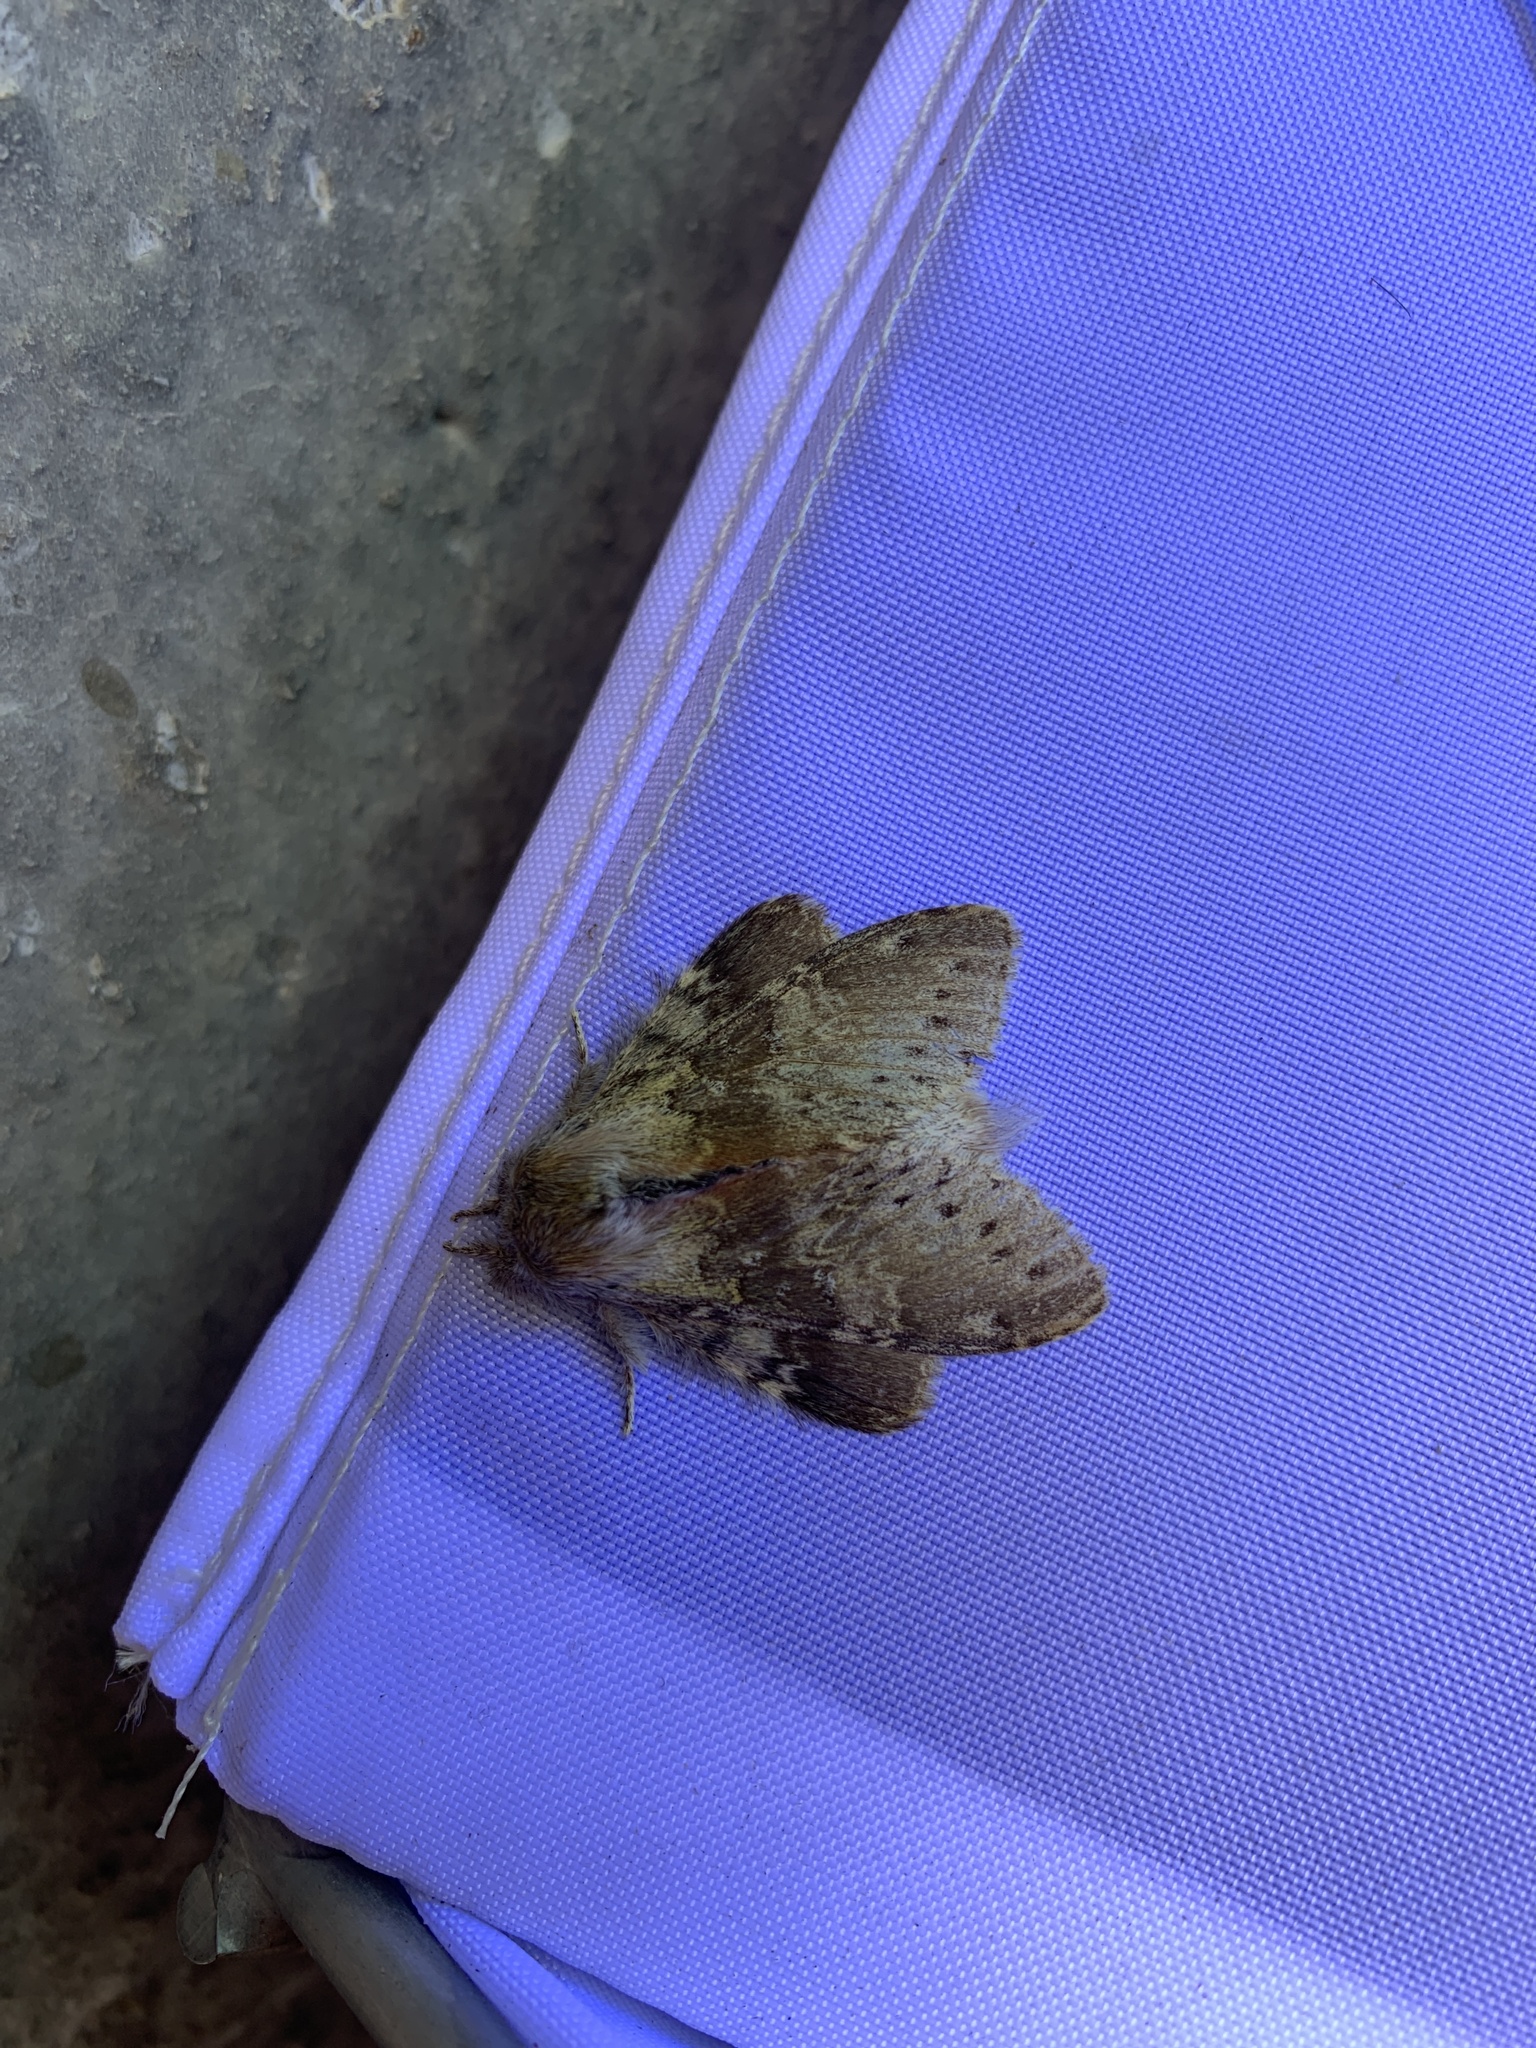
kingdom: Animalia
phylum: Arthropoda
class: Insecta
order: Lepidoptera
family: Notodontidae
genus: Stauropus
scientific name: Stauropus fagi
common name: Lobster moth
